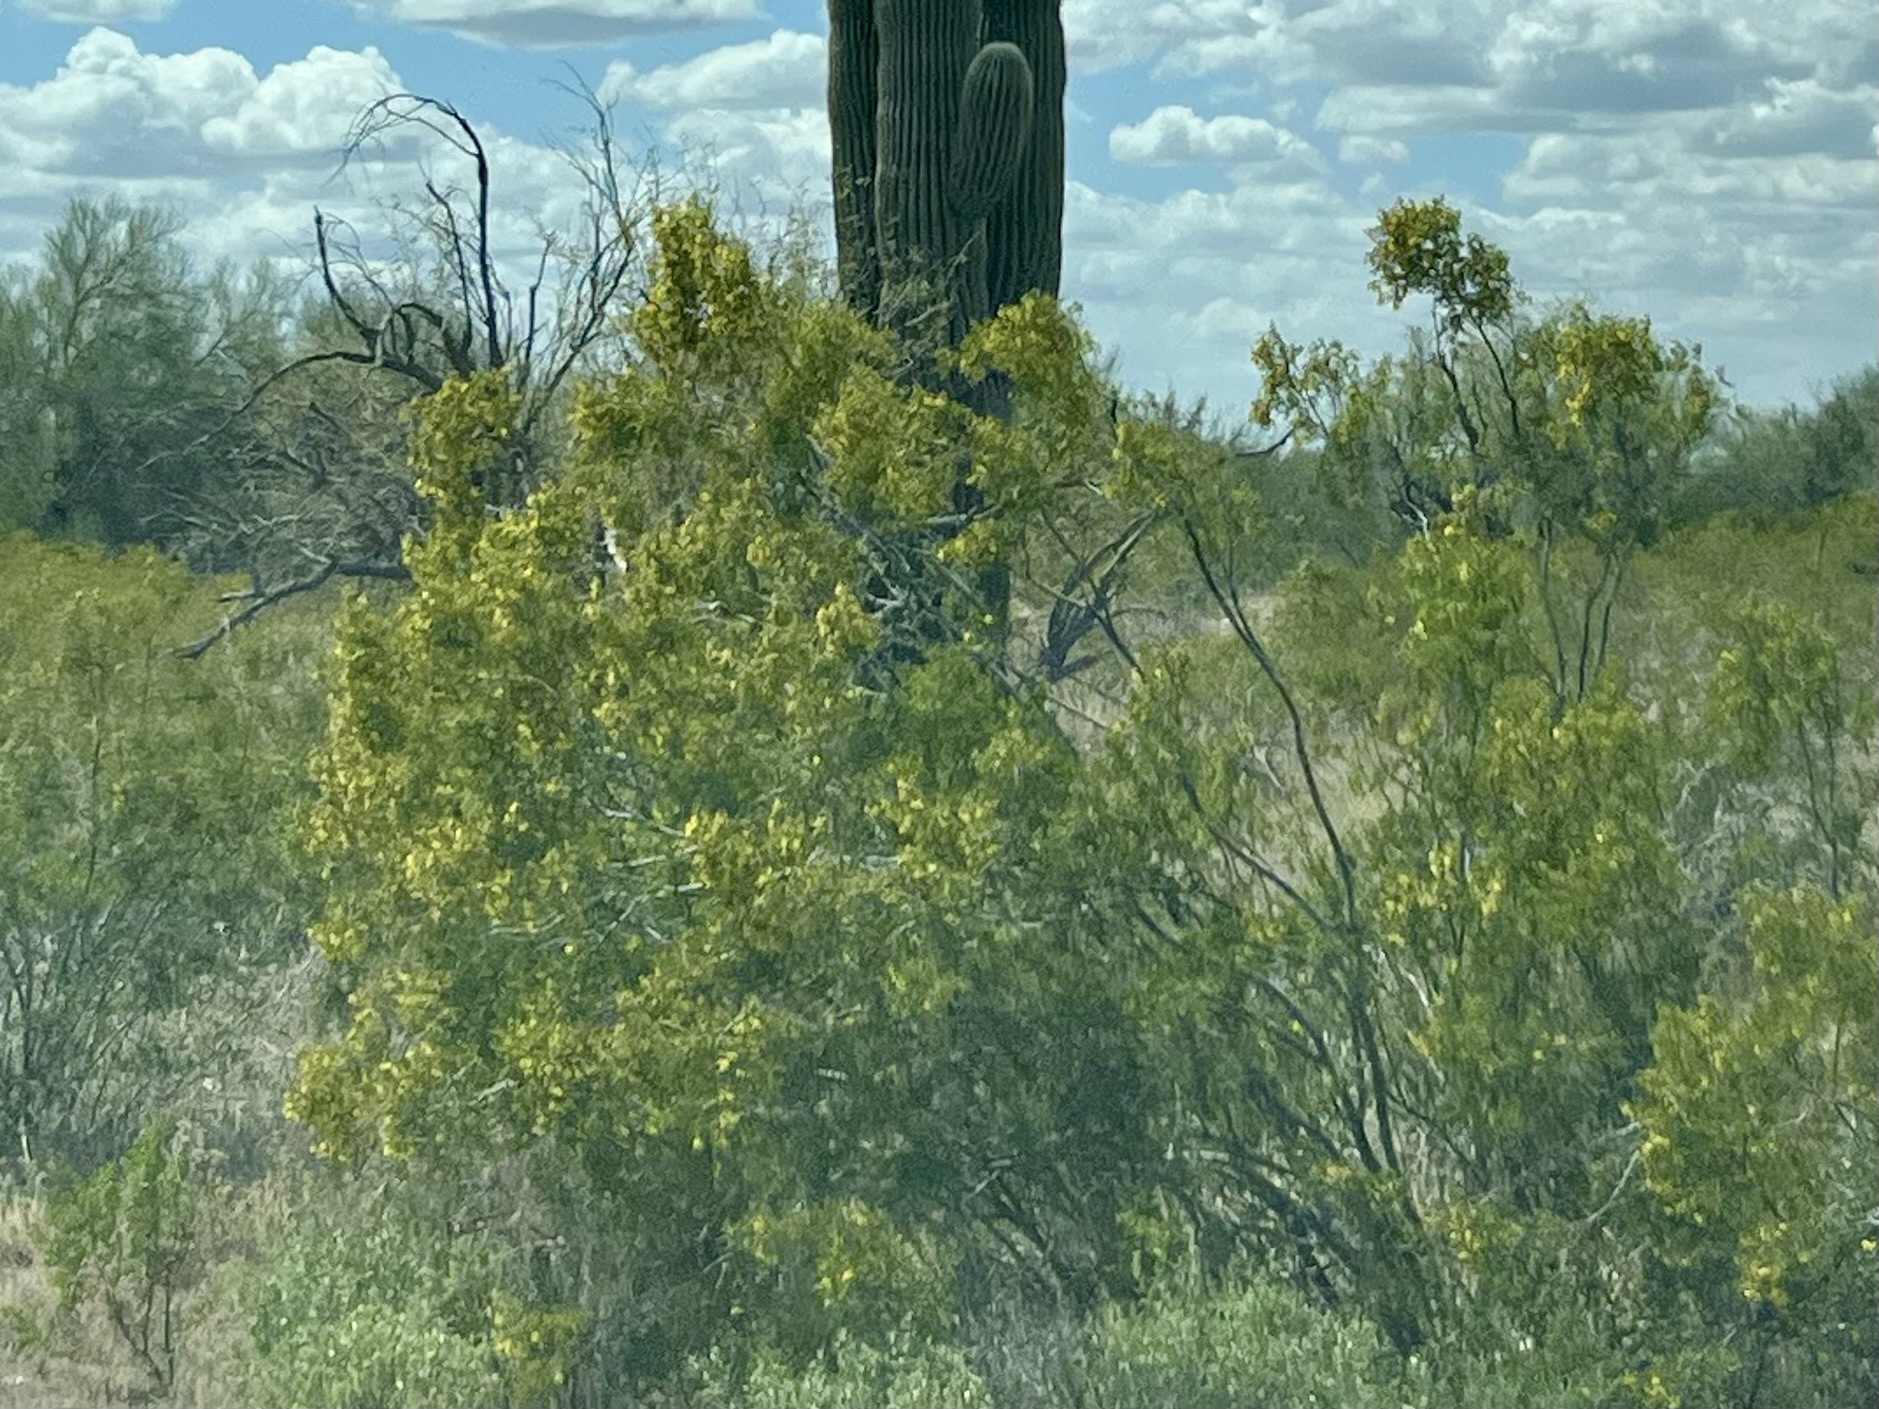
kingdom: Plantae
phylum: Tracheophyta
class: Magnoliopsida
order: Zygophyllales
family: Zygophyllaceae
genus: Larrea
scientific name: Larrea tridentata
